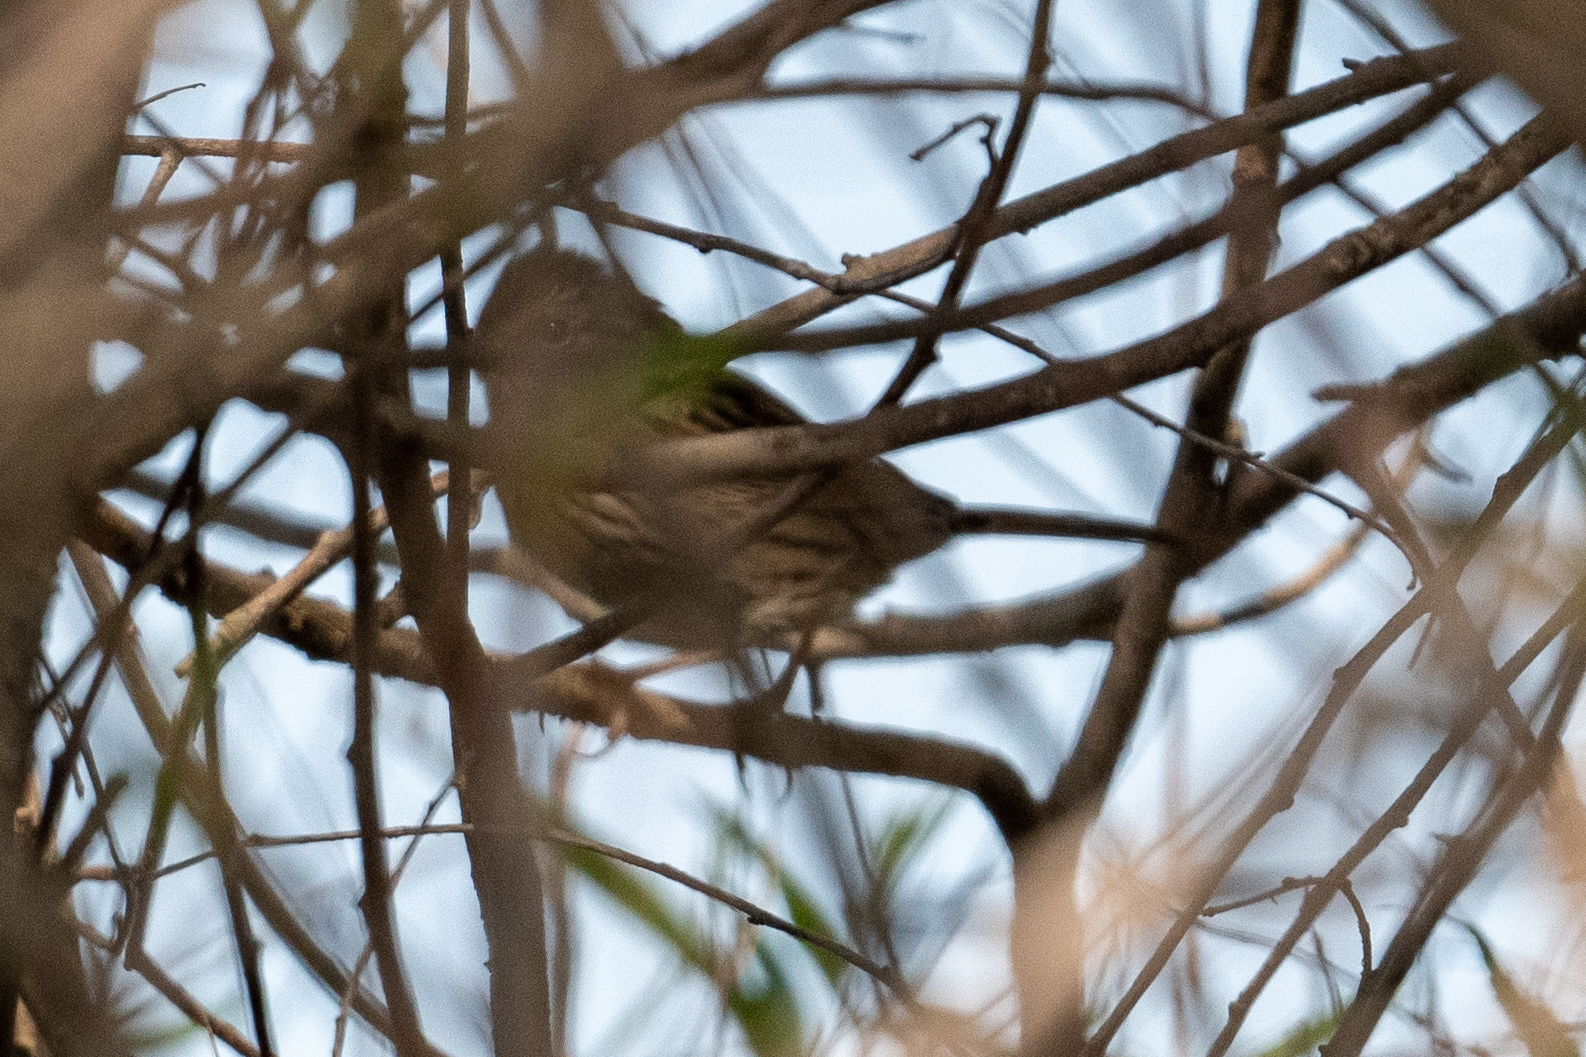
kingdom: Animalia
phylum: Chordata
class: Aves
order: Passeriformes
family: Passerellidae
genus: Melospiza
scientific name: Melospiza lincolnii
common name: Lincoln's sparrow
